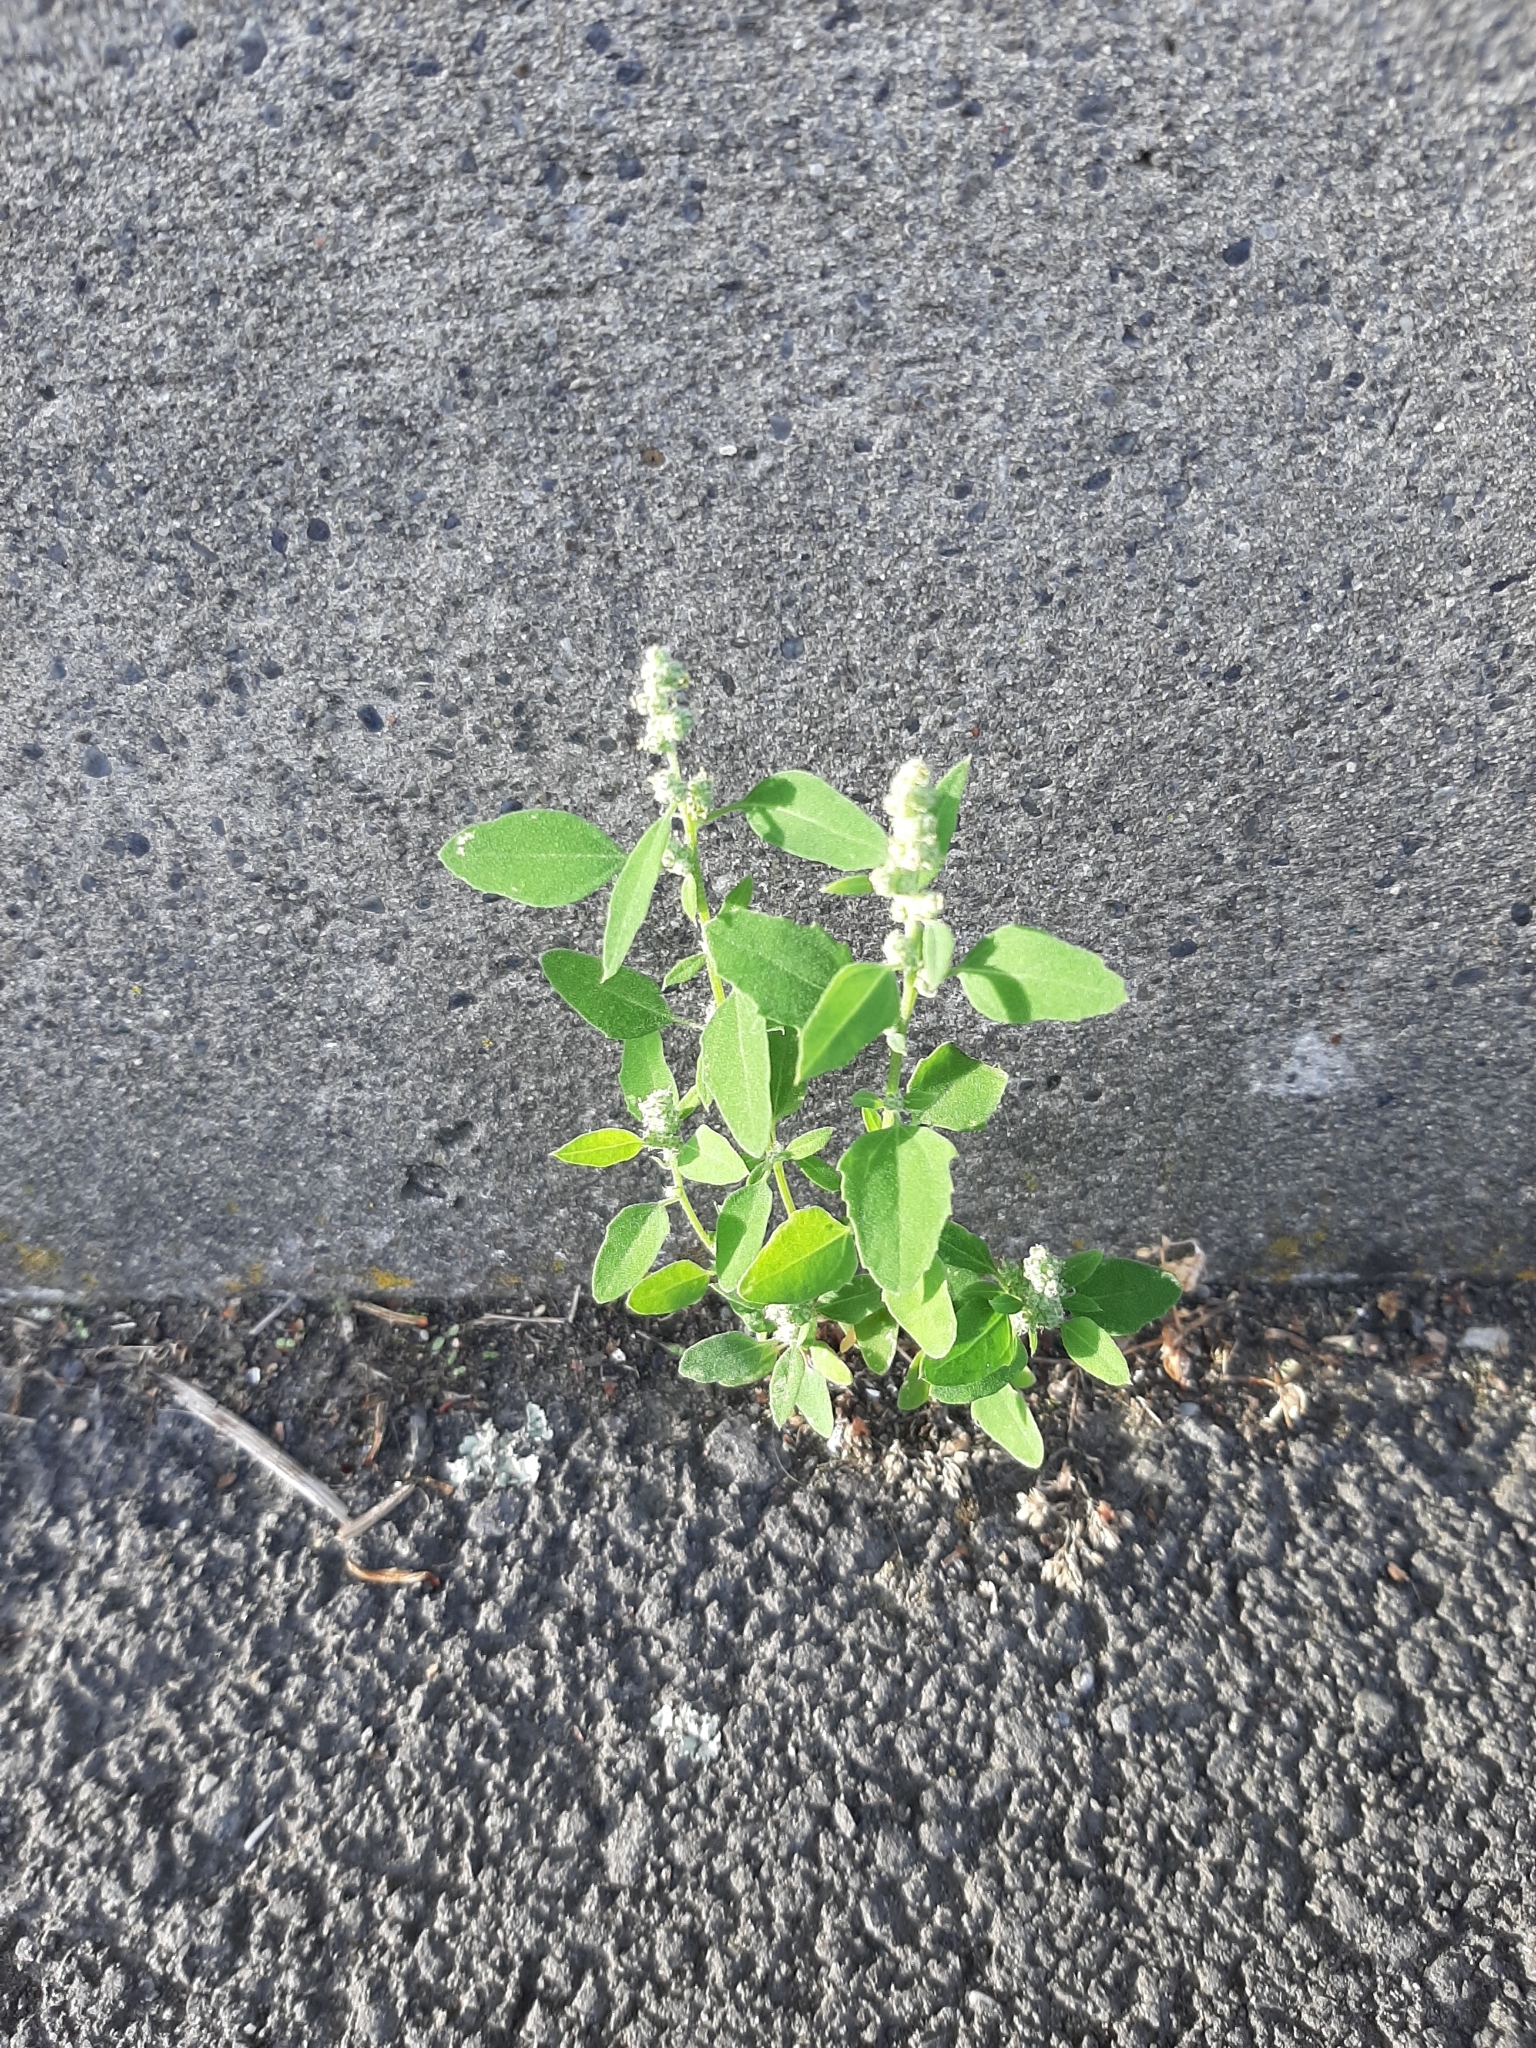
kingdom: Plantae
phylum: Tracheophyta
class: Magnoliopsida
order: Caryophyllales
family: Amaranthaceae
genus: Chenopodium
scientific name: Chenopodium album
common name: Fat-hen
